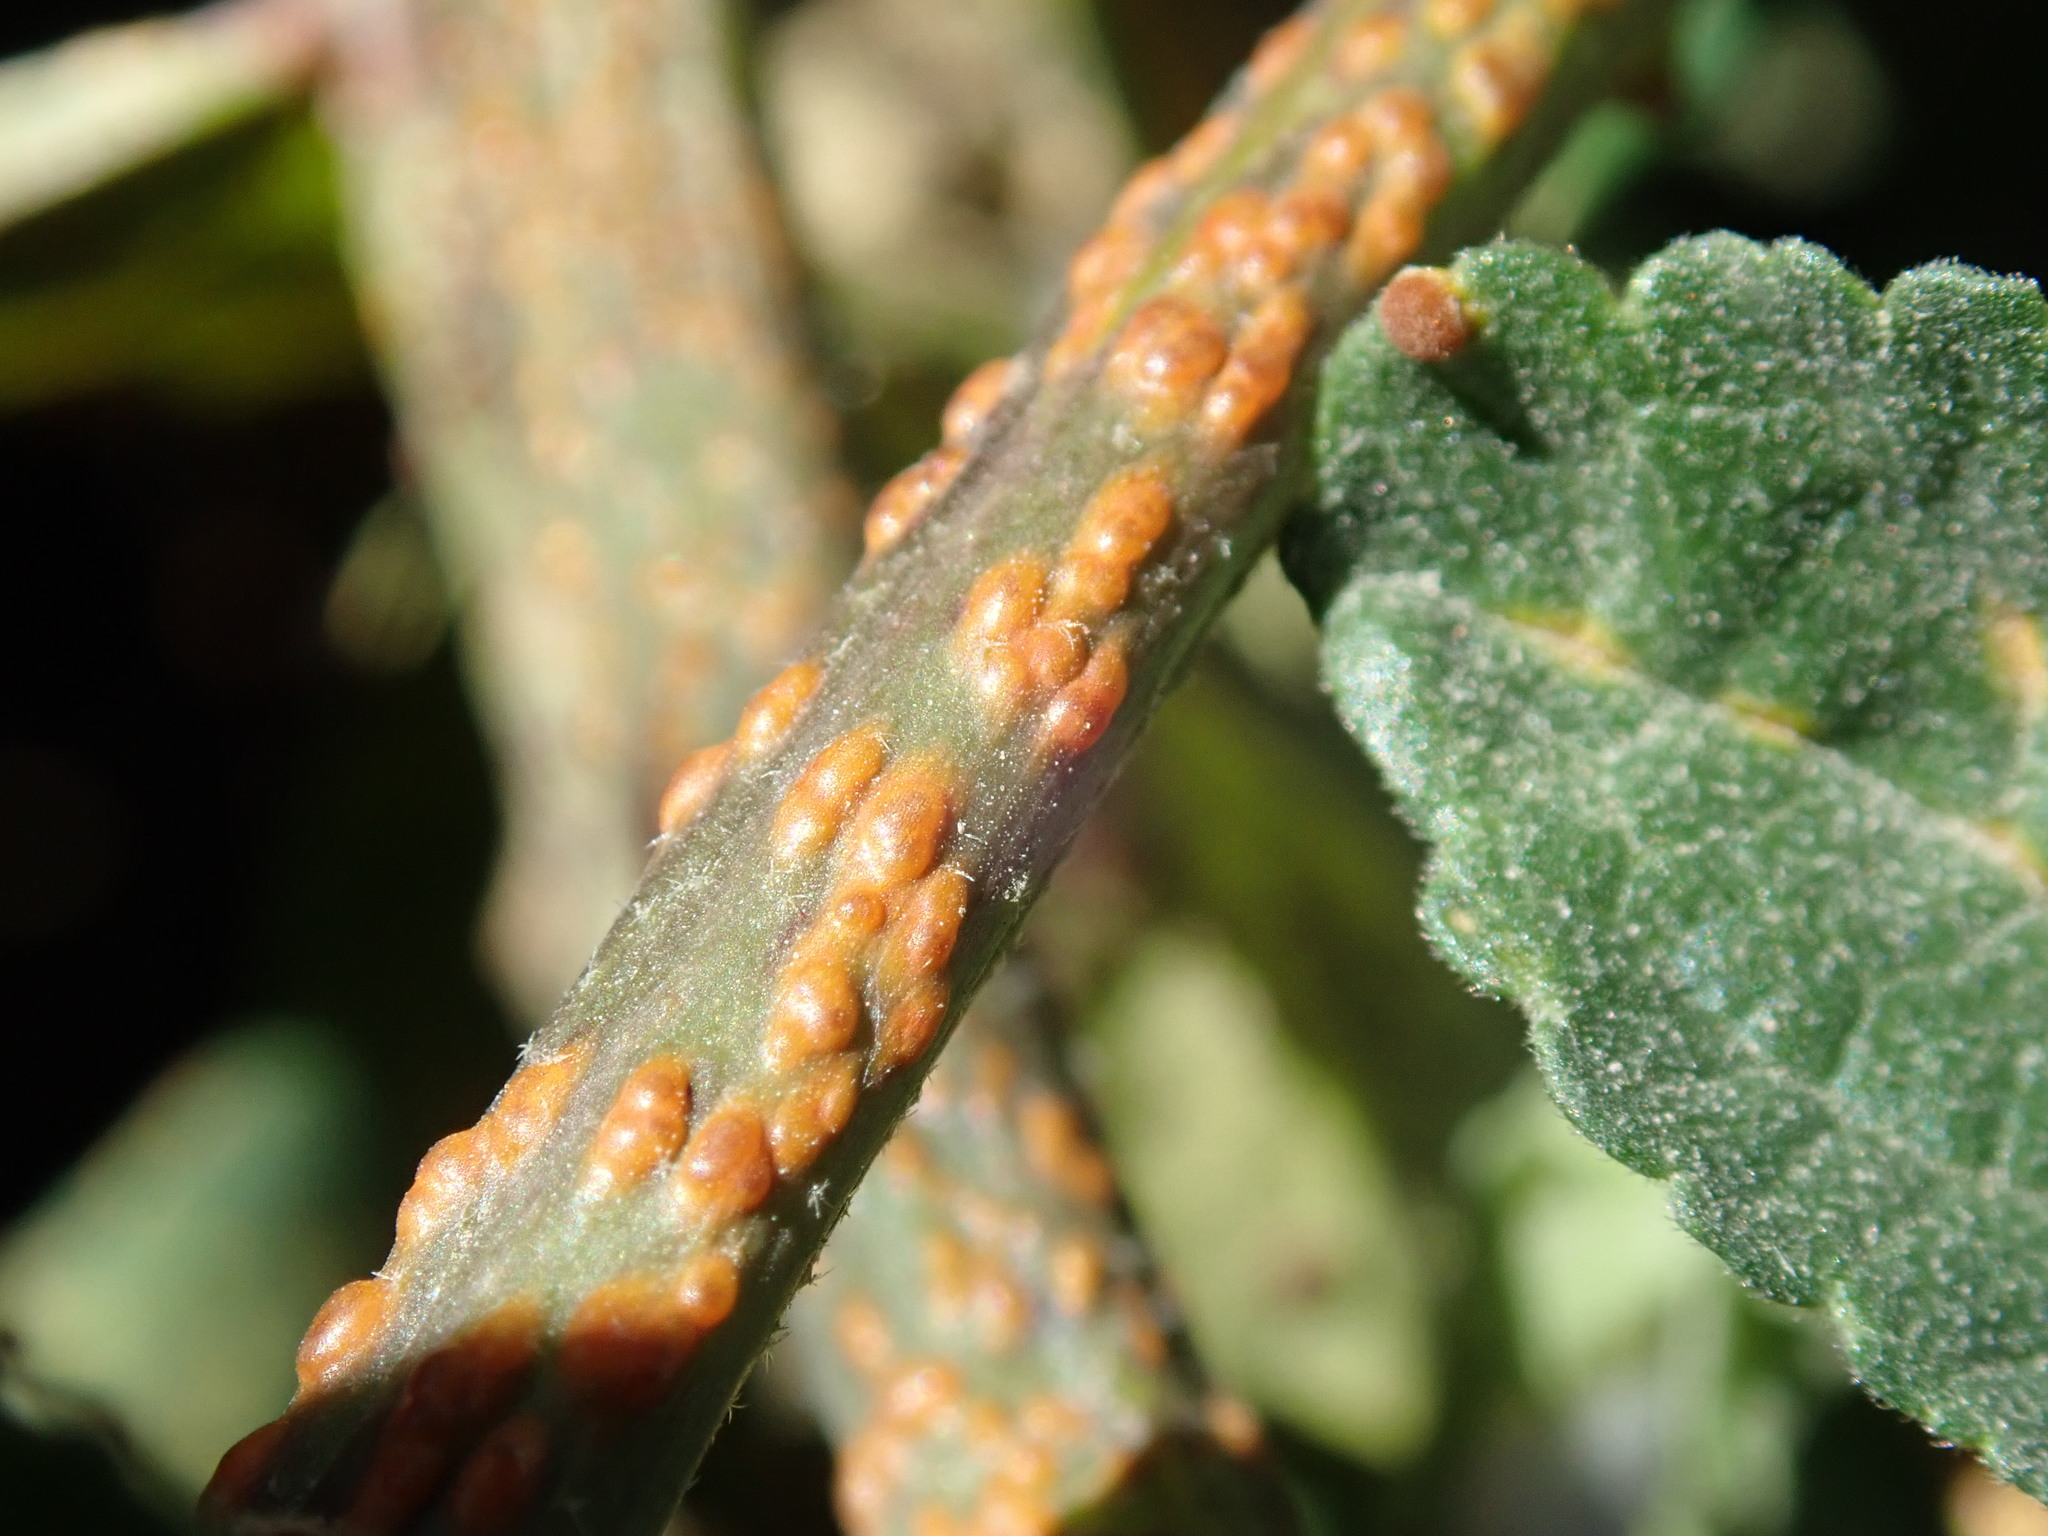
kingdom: Fungi
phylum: Basidiomycota
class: Pucciniomycetes
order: Pucciniales
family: Pucciniaceae
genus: Puccinia
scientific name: Puccinia malvacearum
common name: Hollyhock rust
